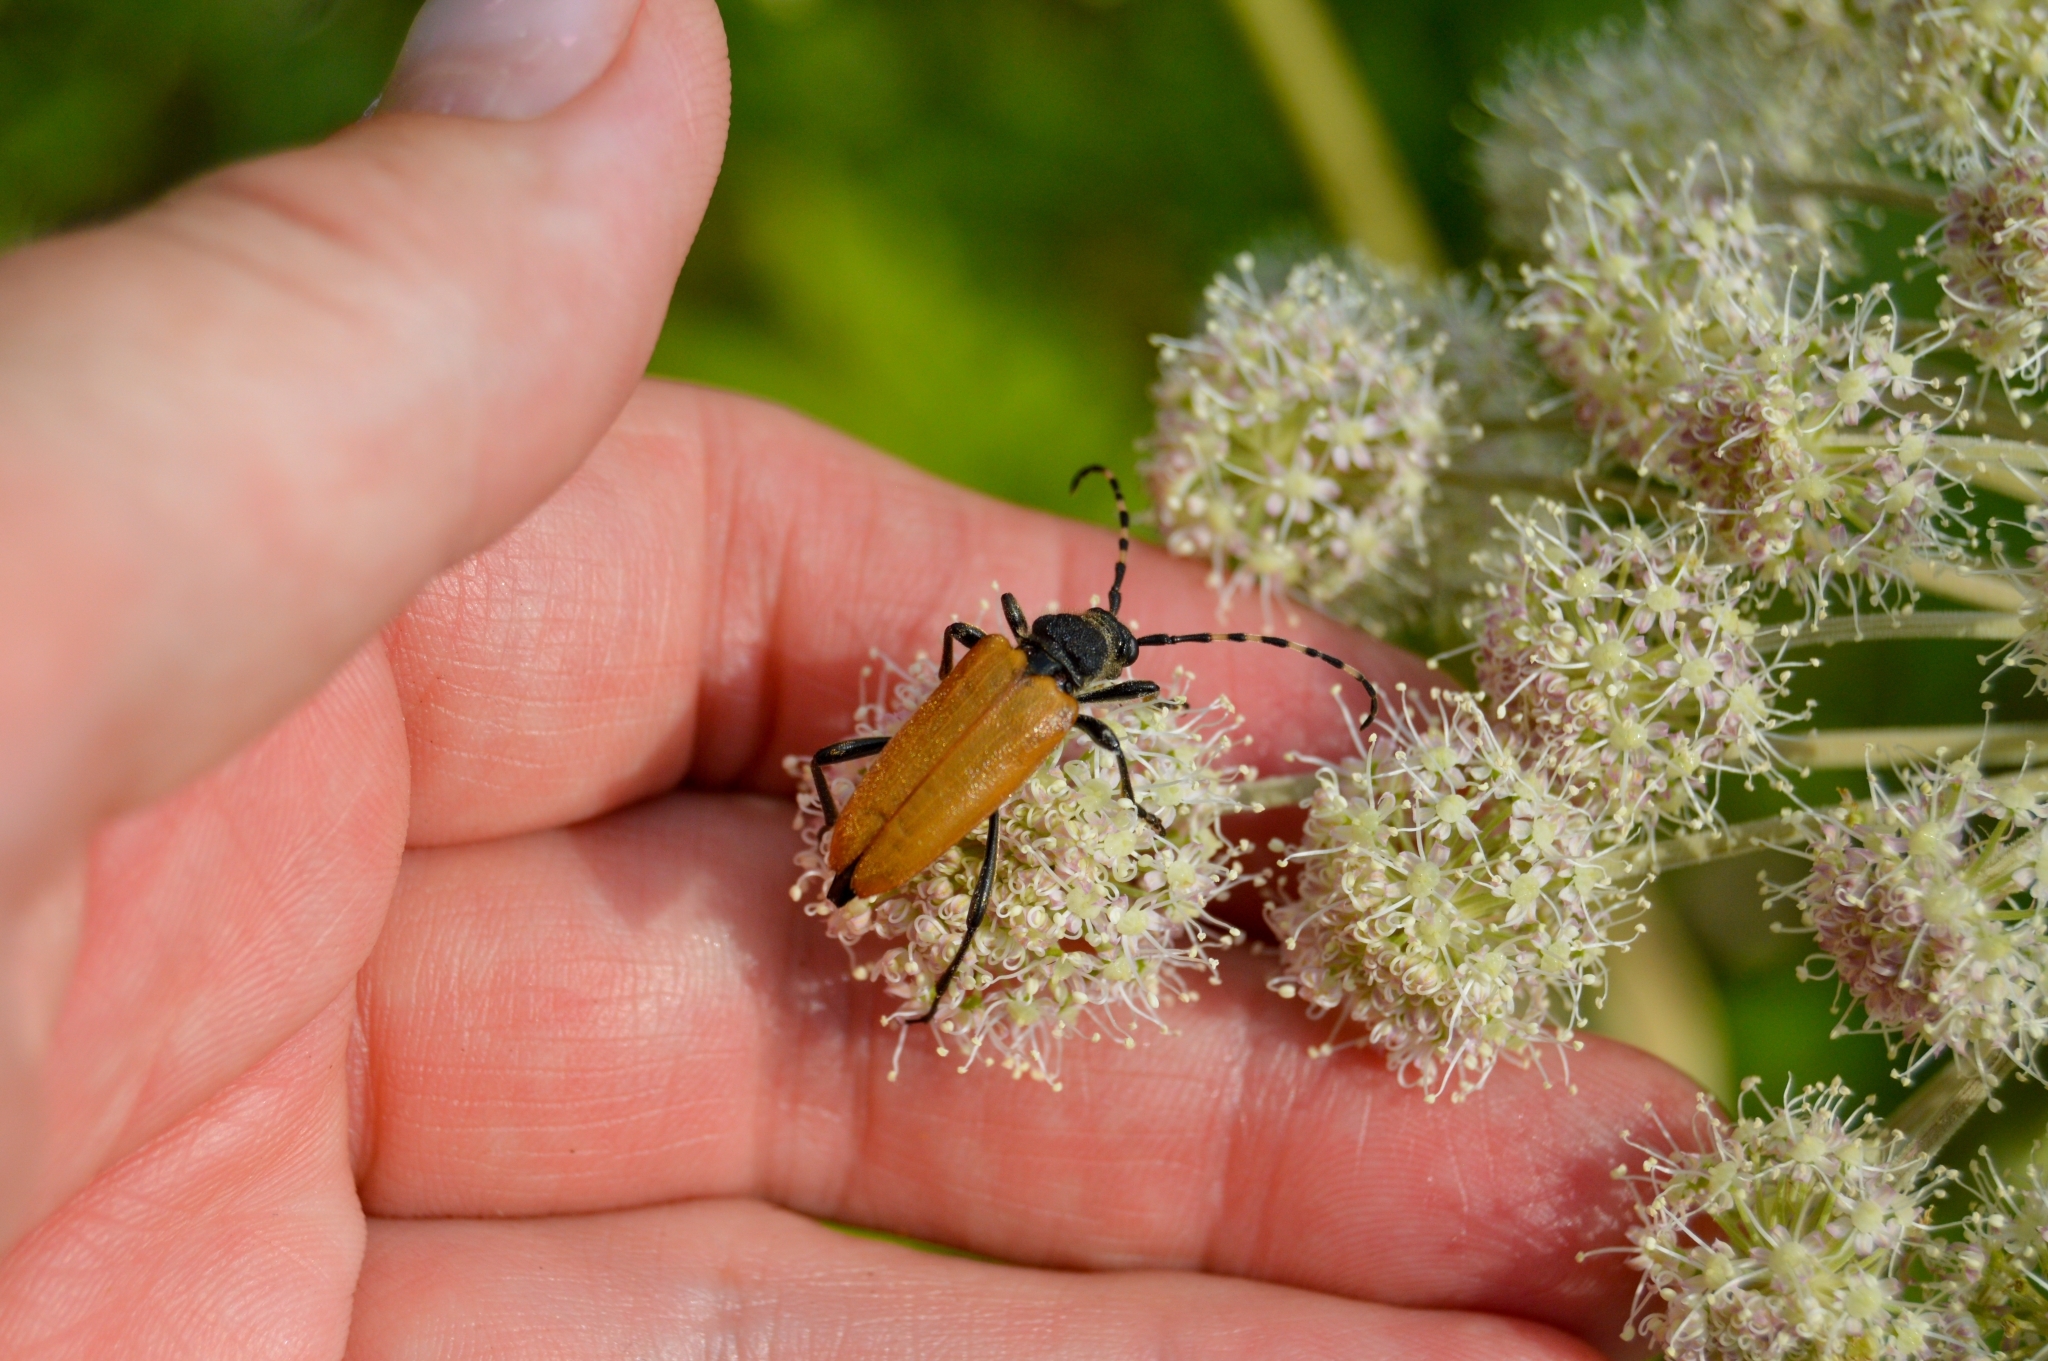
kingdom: Animalia
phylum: Arthropoda
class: Insecta
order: Coleoptera
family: Cerambycidae
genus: Stictoleptura
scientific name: Stictoleptura variicornis
